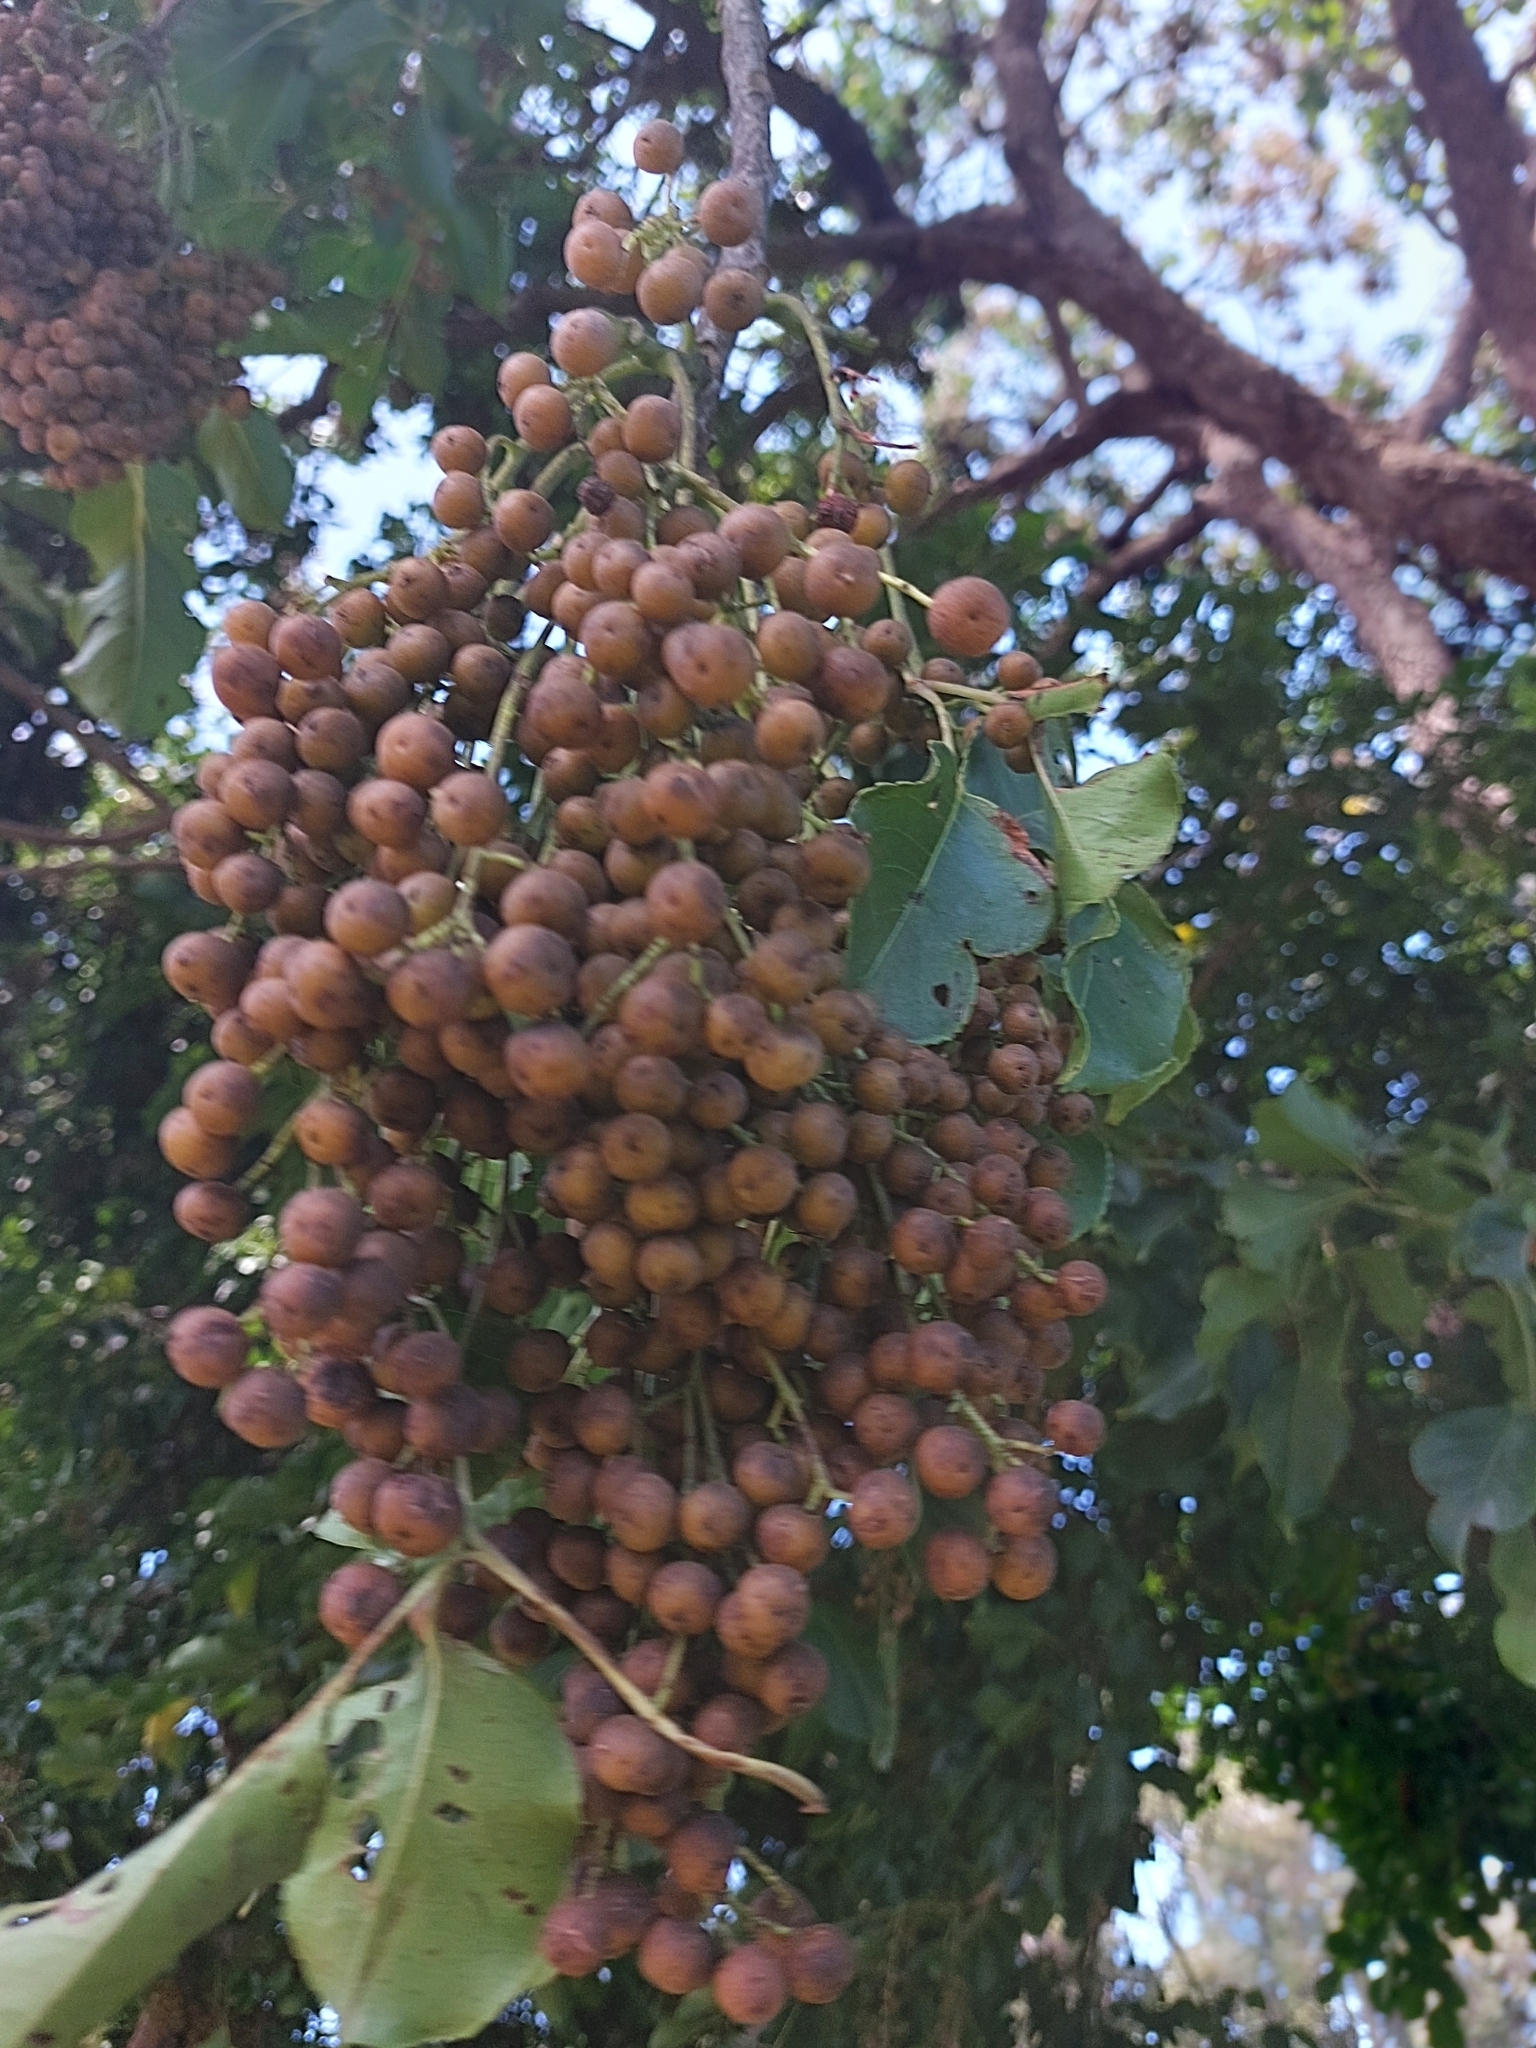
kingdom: Plantae
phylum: Tracheophyta
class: Magnoliopsida
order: Malpighiales
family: Phyllanthaceae
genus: Bischofia
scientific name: Bischofia javanica
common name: Javanese bishopwood
